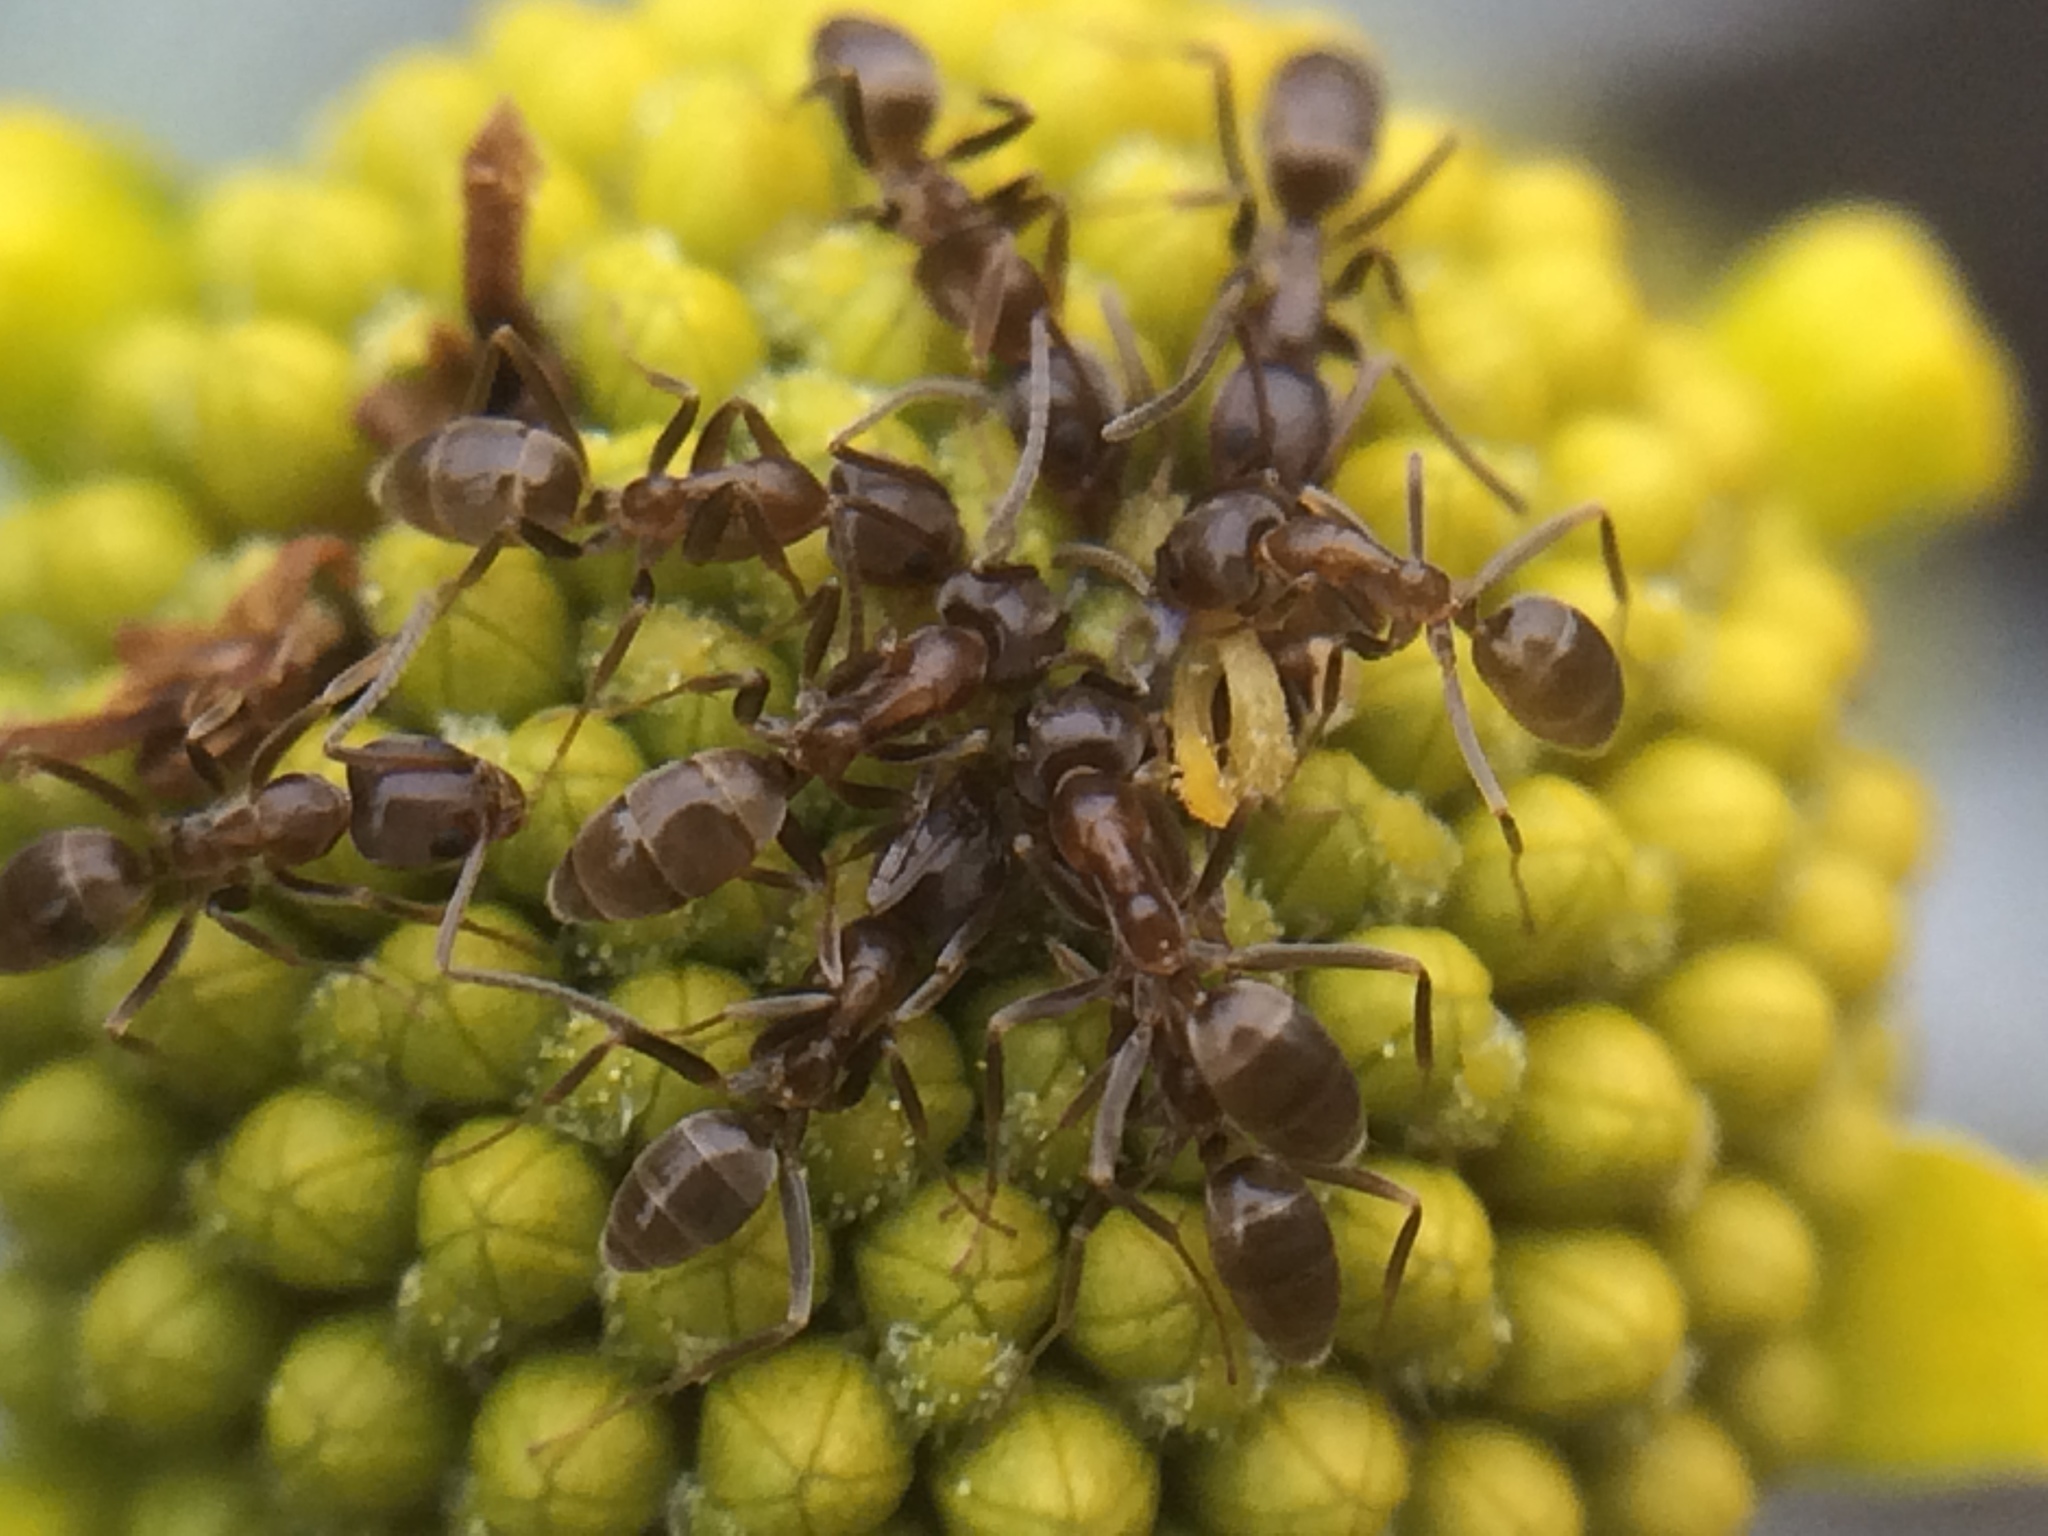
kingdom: Animalia
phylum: Arthropoda
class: Insecta
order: Hymenoptera
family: Formicidae
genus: Linepithema
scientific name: Linepithema humile
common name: Argentine ant
